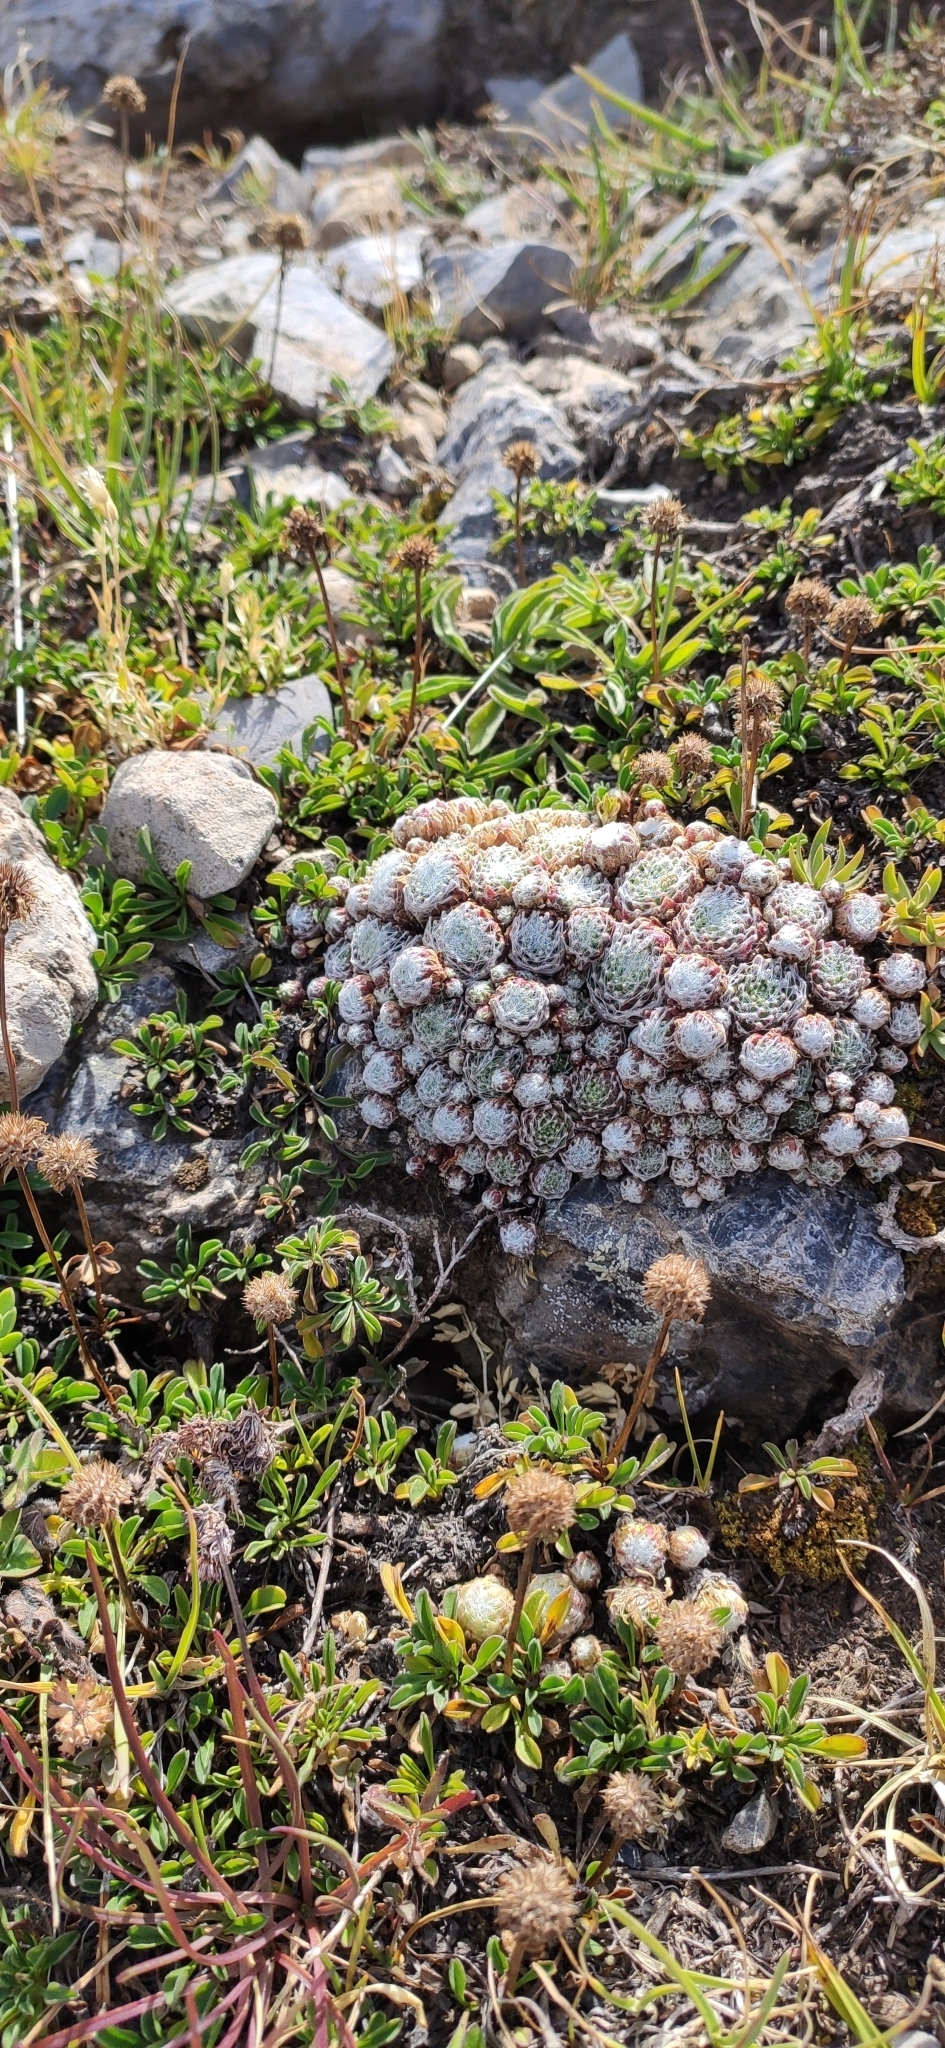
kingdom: Plantae
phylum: Tracheophyta
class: Magnoliopsida
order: Saxifragales
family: Crassulaceae
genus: Sempervivum
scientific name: Sempervivum arachnoideum
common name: Cobweb house-leek
